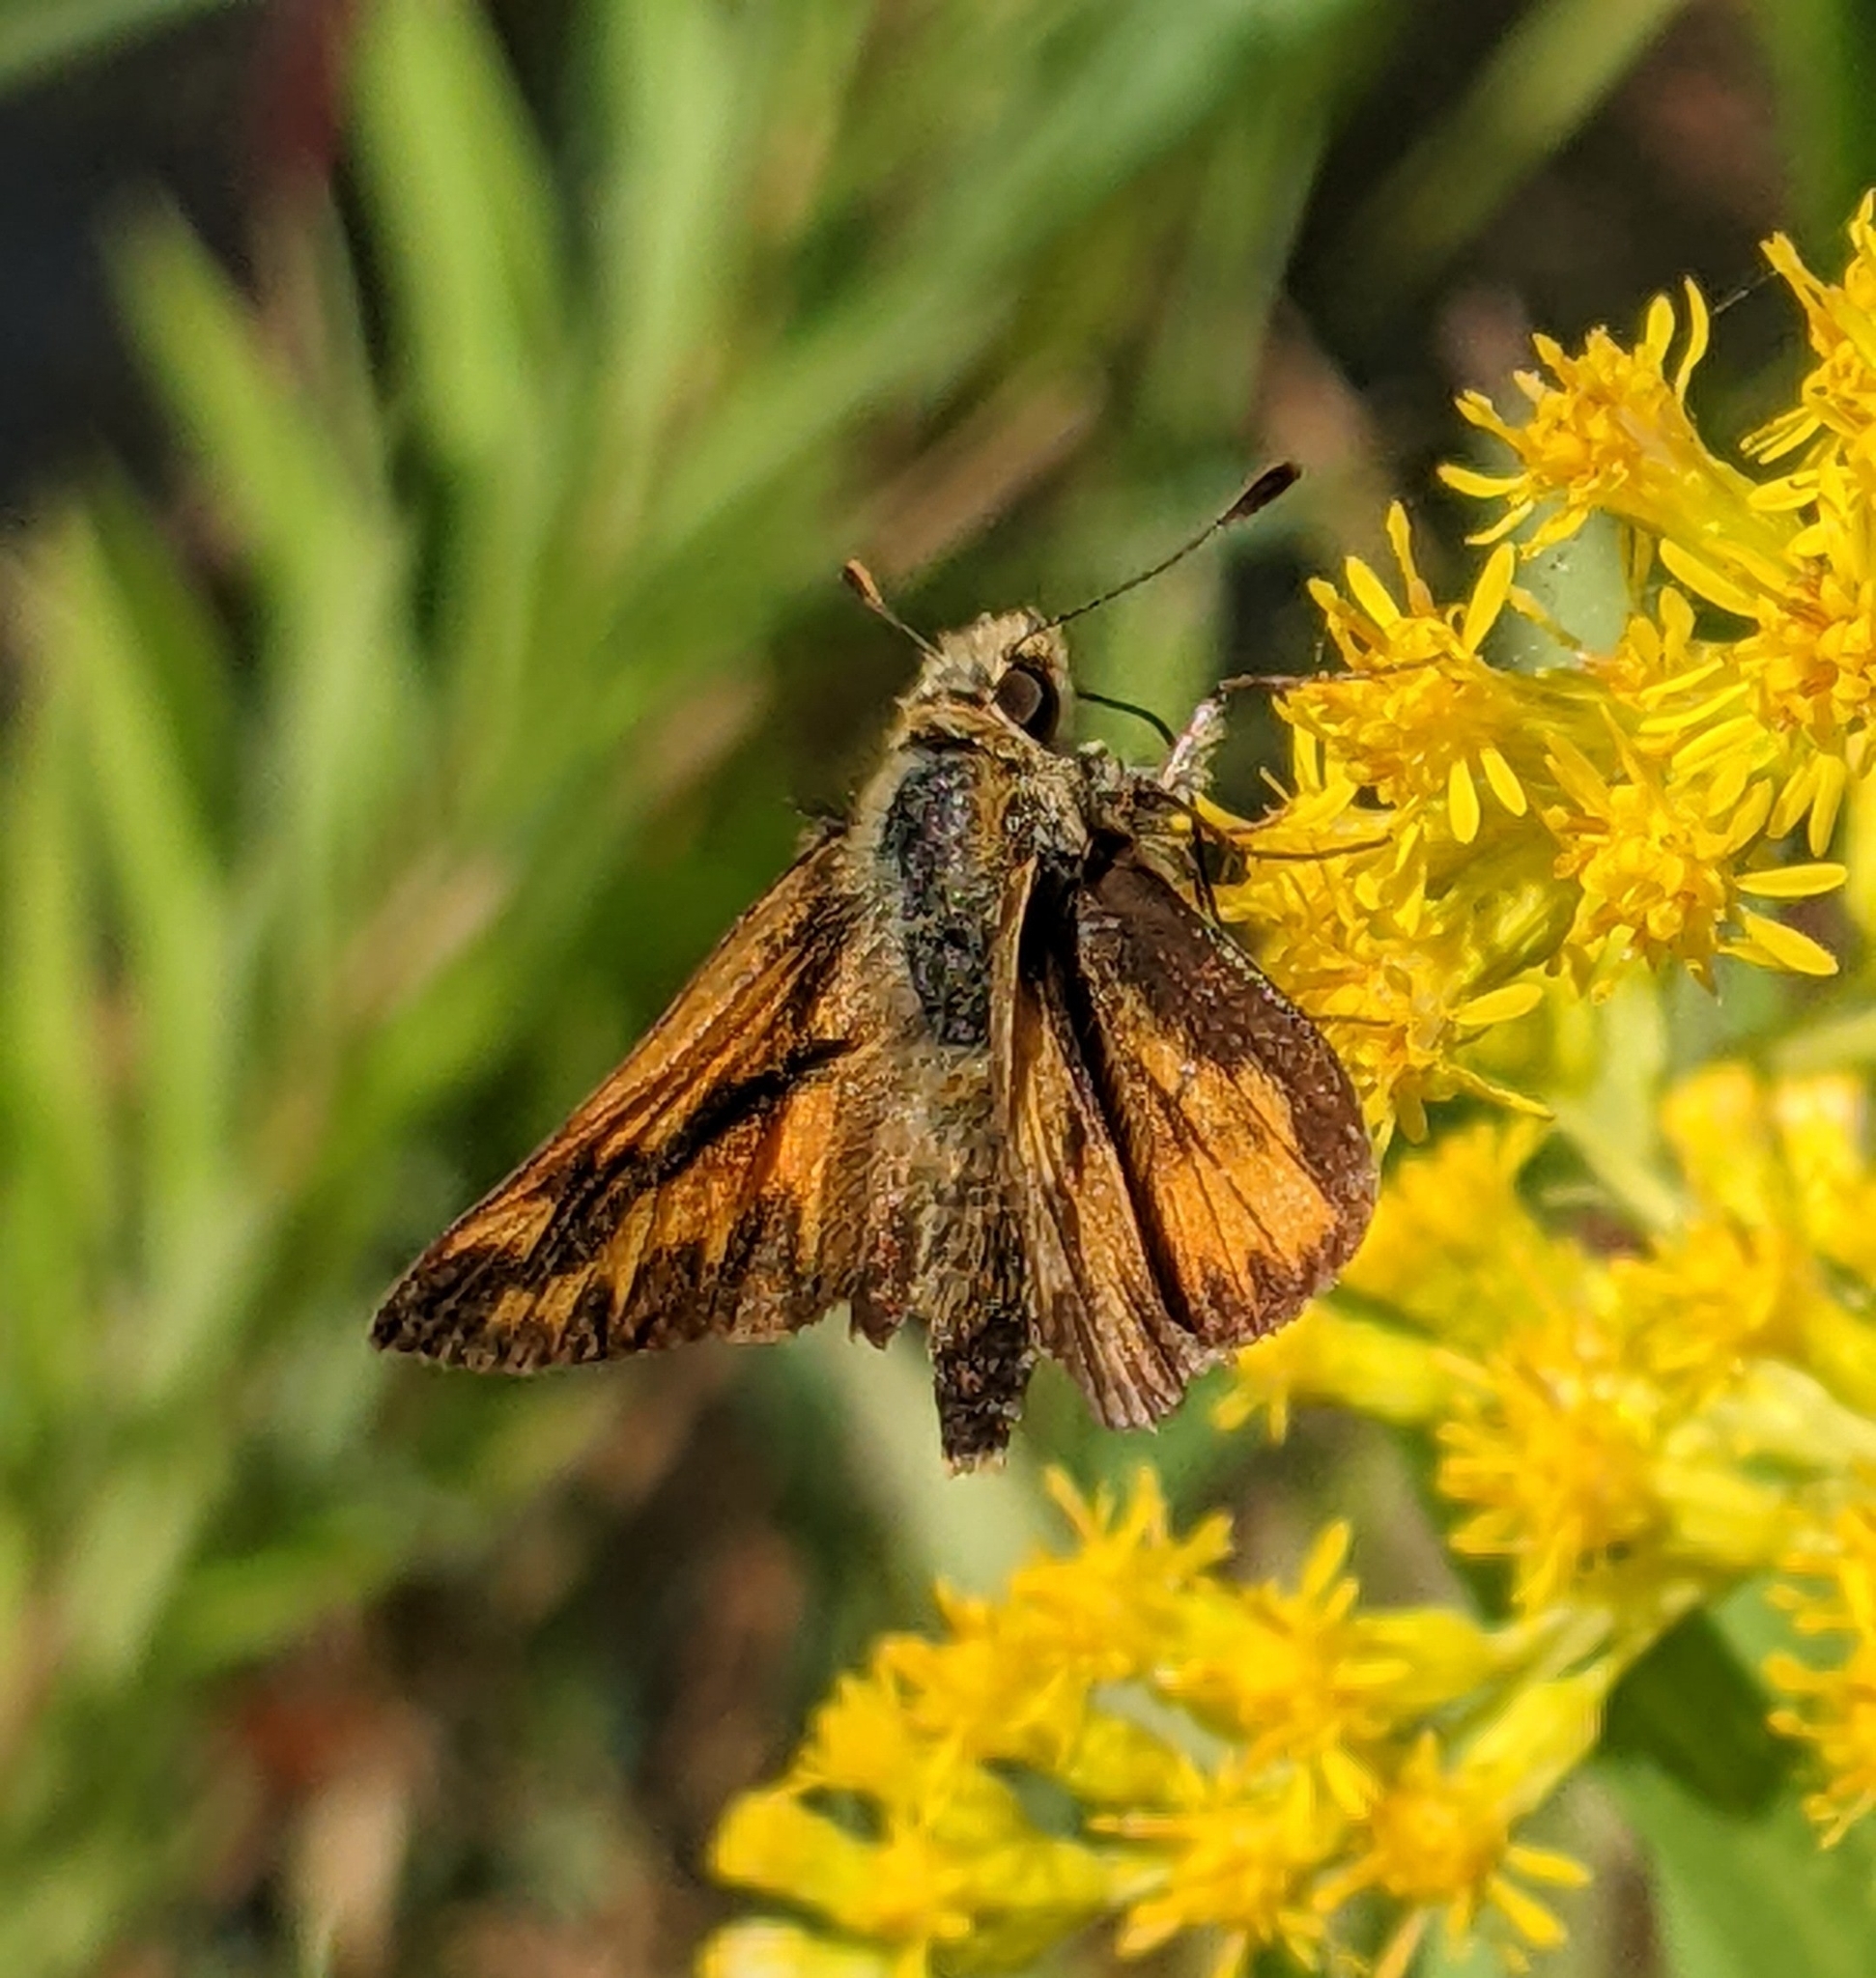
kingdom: Animalia
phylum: Arthropoda
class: Insecta
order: Lepidoptera
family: Hesperiidae
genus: Ochlodes
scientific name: Ochlodes sylvanoides
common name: Woodland skipper
